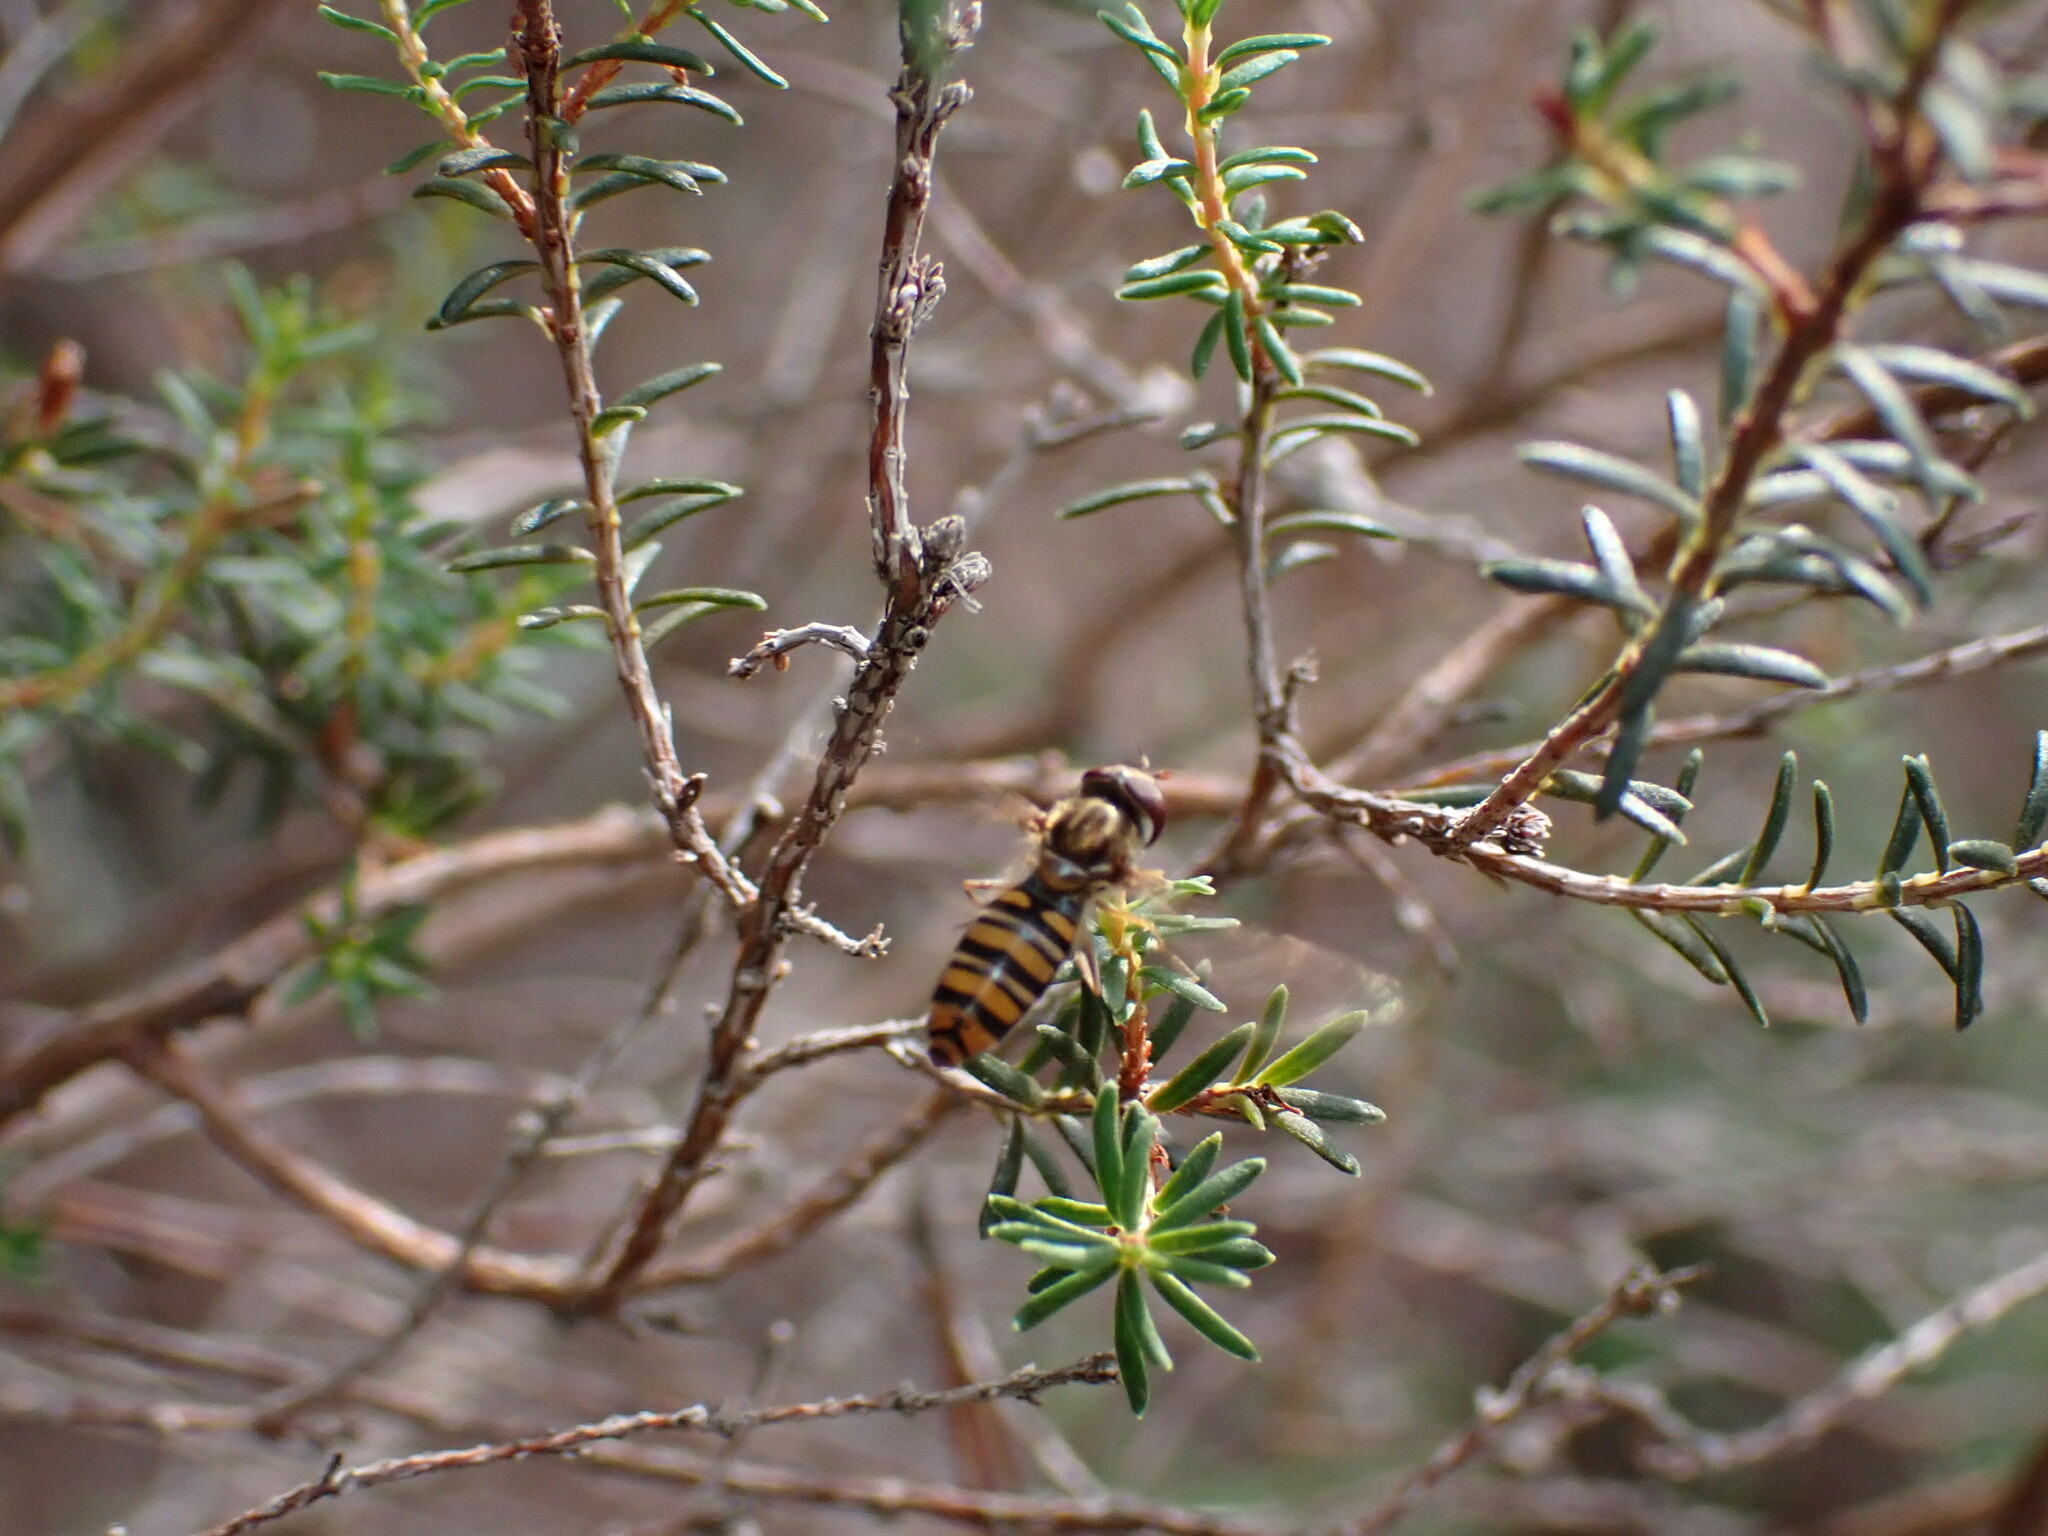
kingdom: Animalia
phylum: Arthropoda
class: Insecta
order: Diptera
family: Syrphidae
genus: Episyrphus
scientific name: Episyrphus balteatus
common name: Marmalade hoverfly
